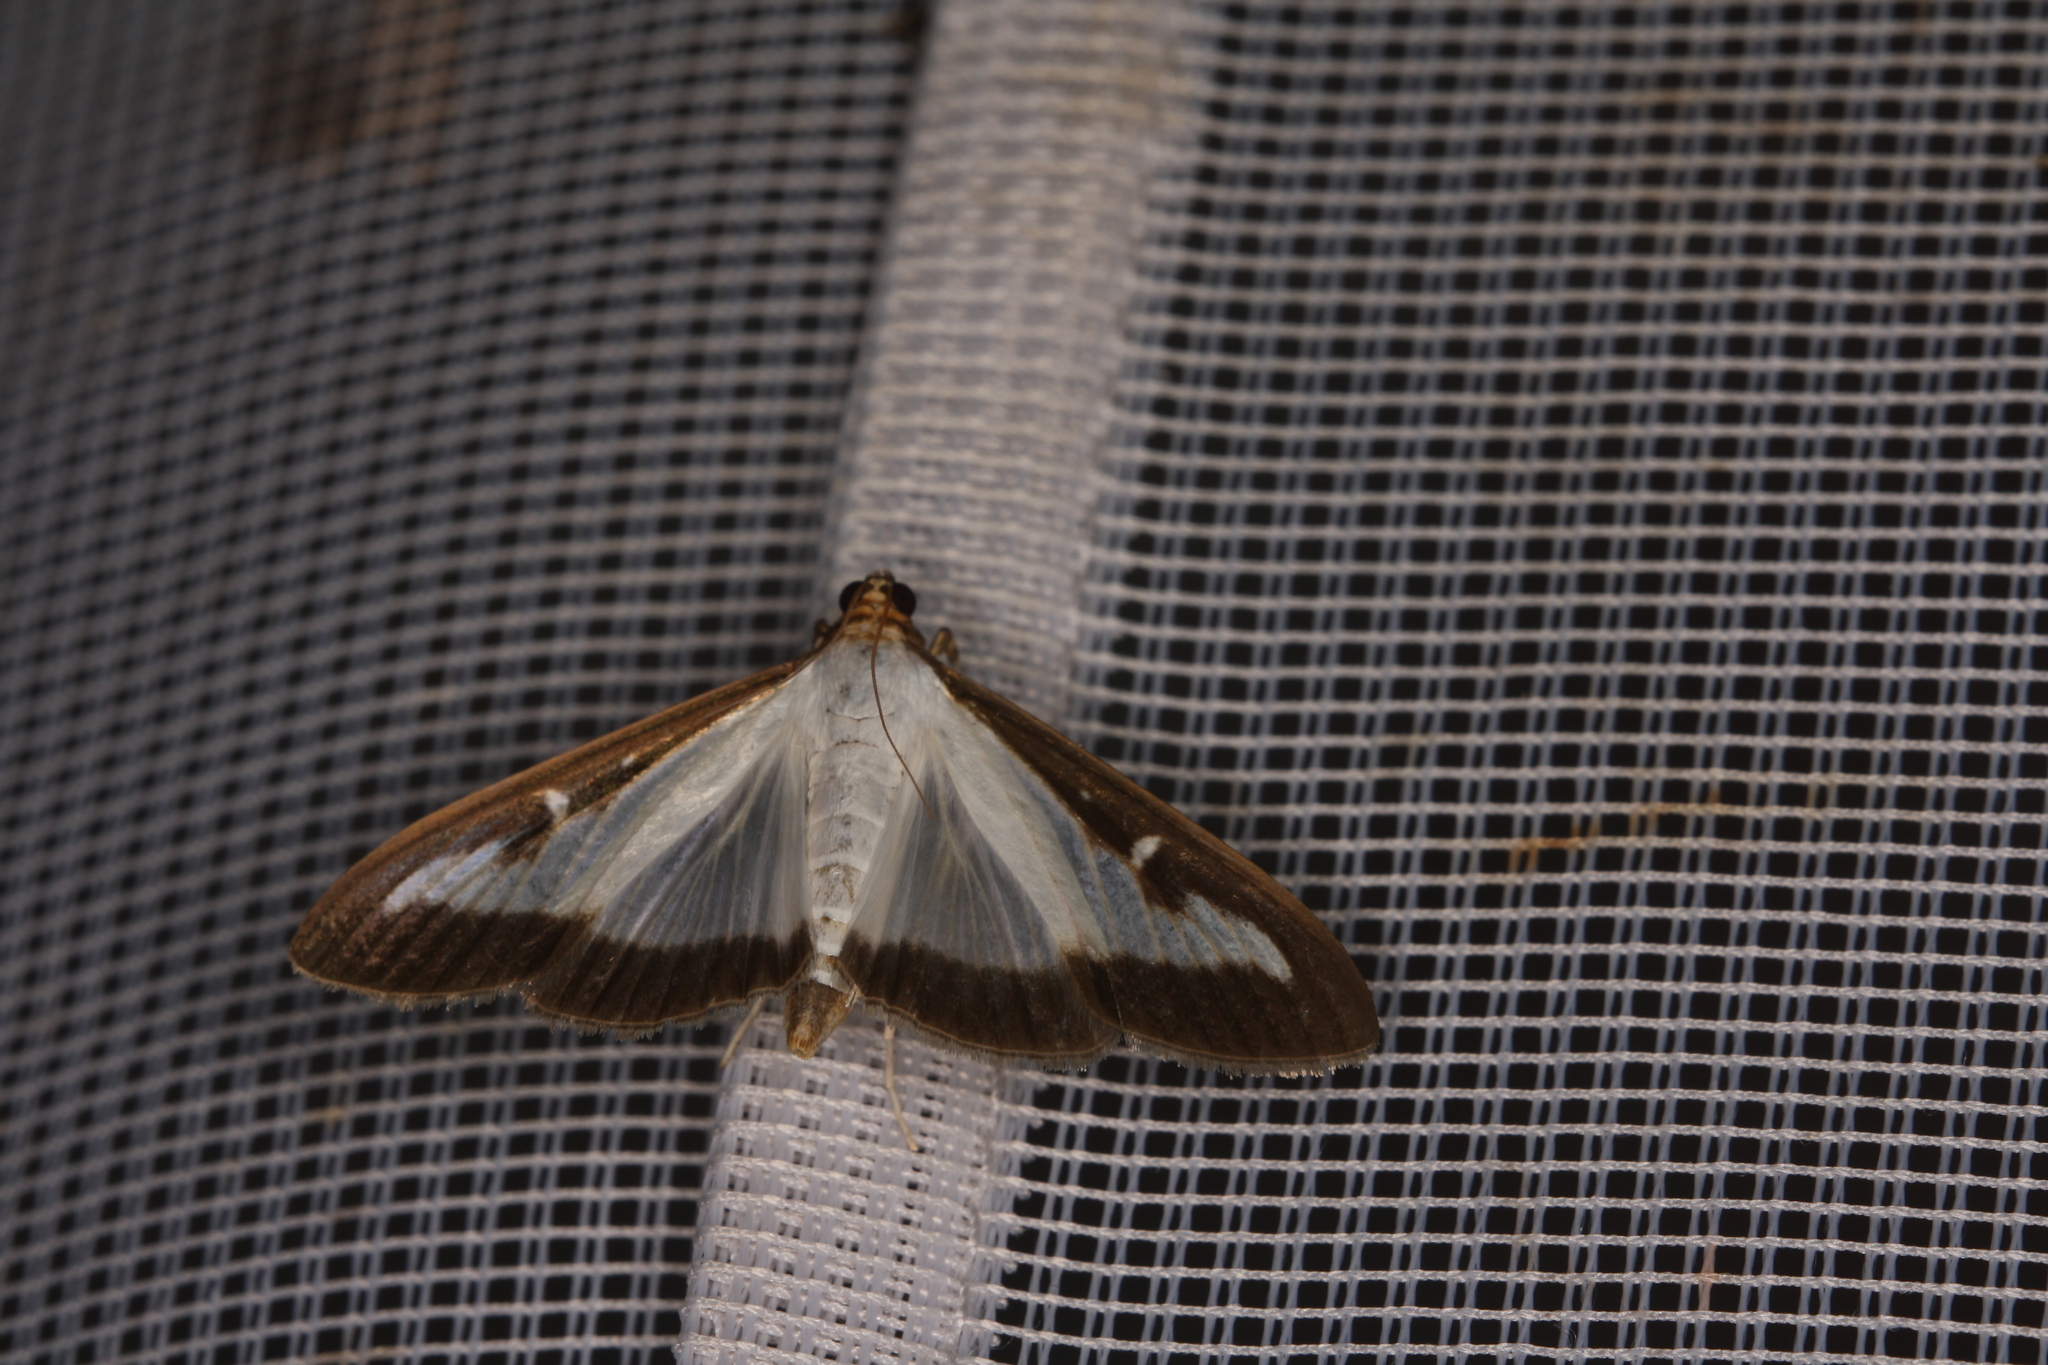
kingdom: Animalia
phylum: Arthropoda
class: Insecta
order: Lepidoptera
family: Crambidae
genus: Cydalima
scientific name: Cydalima perspectalis
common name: Box tree moth
